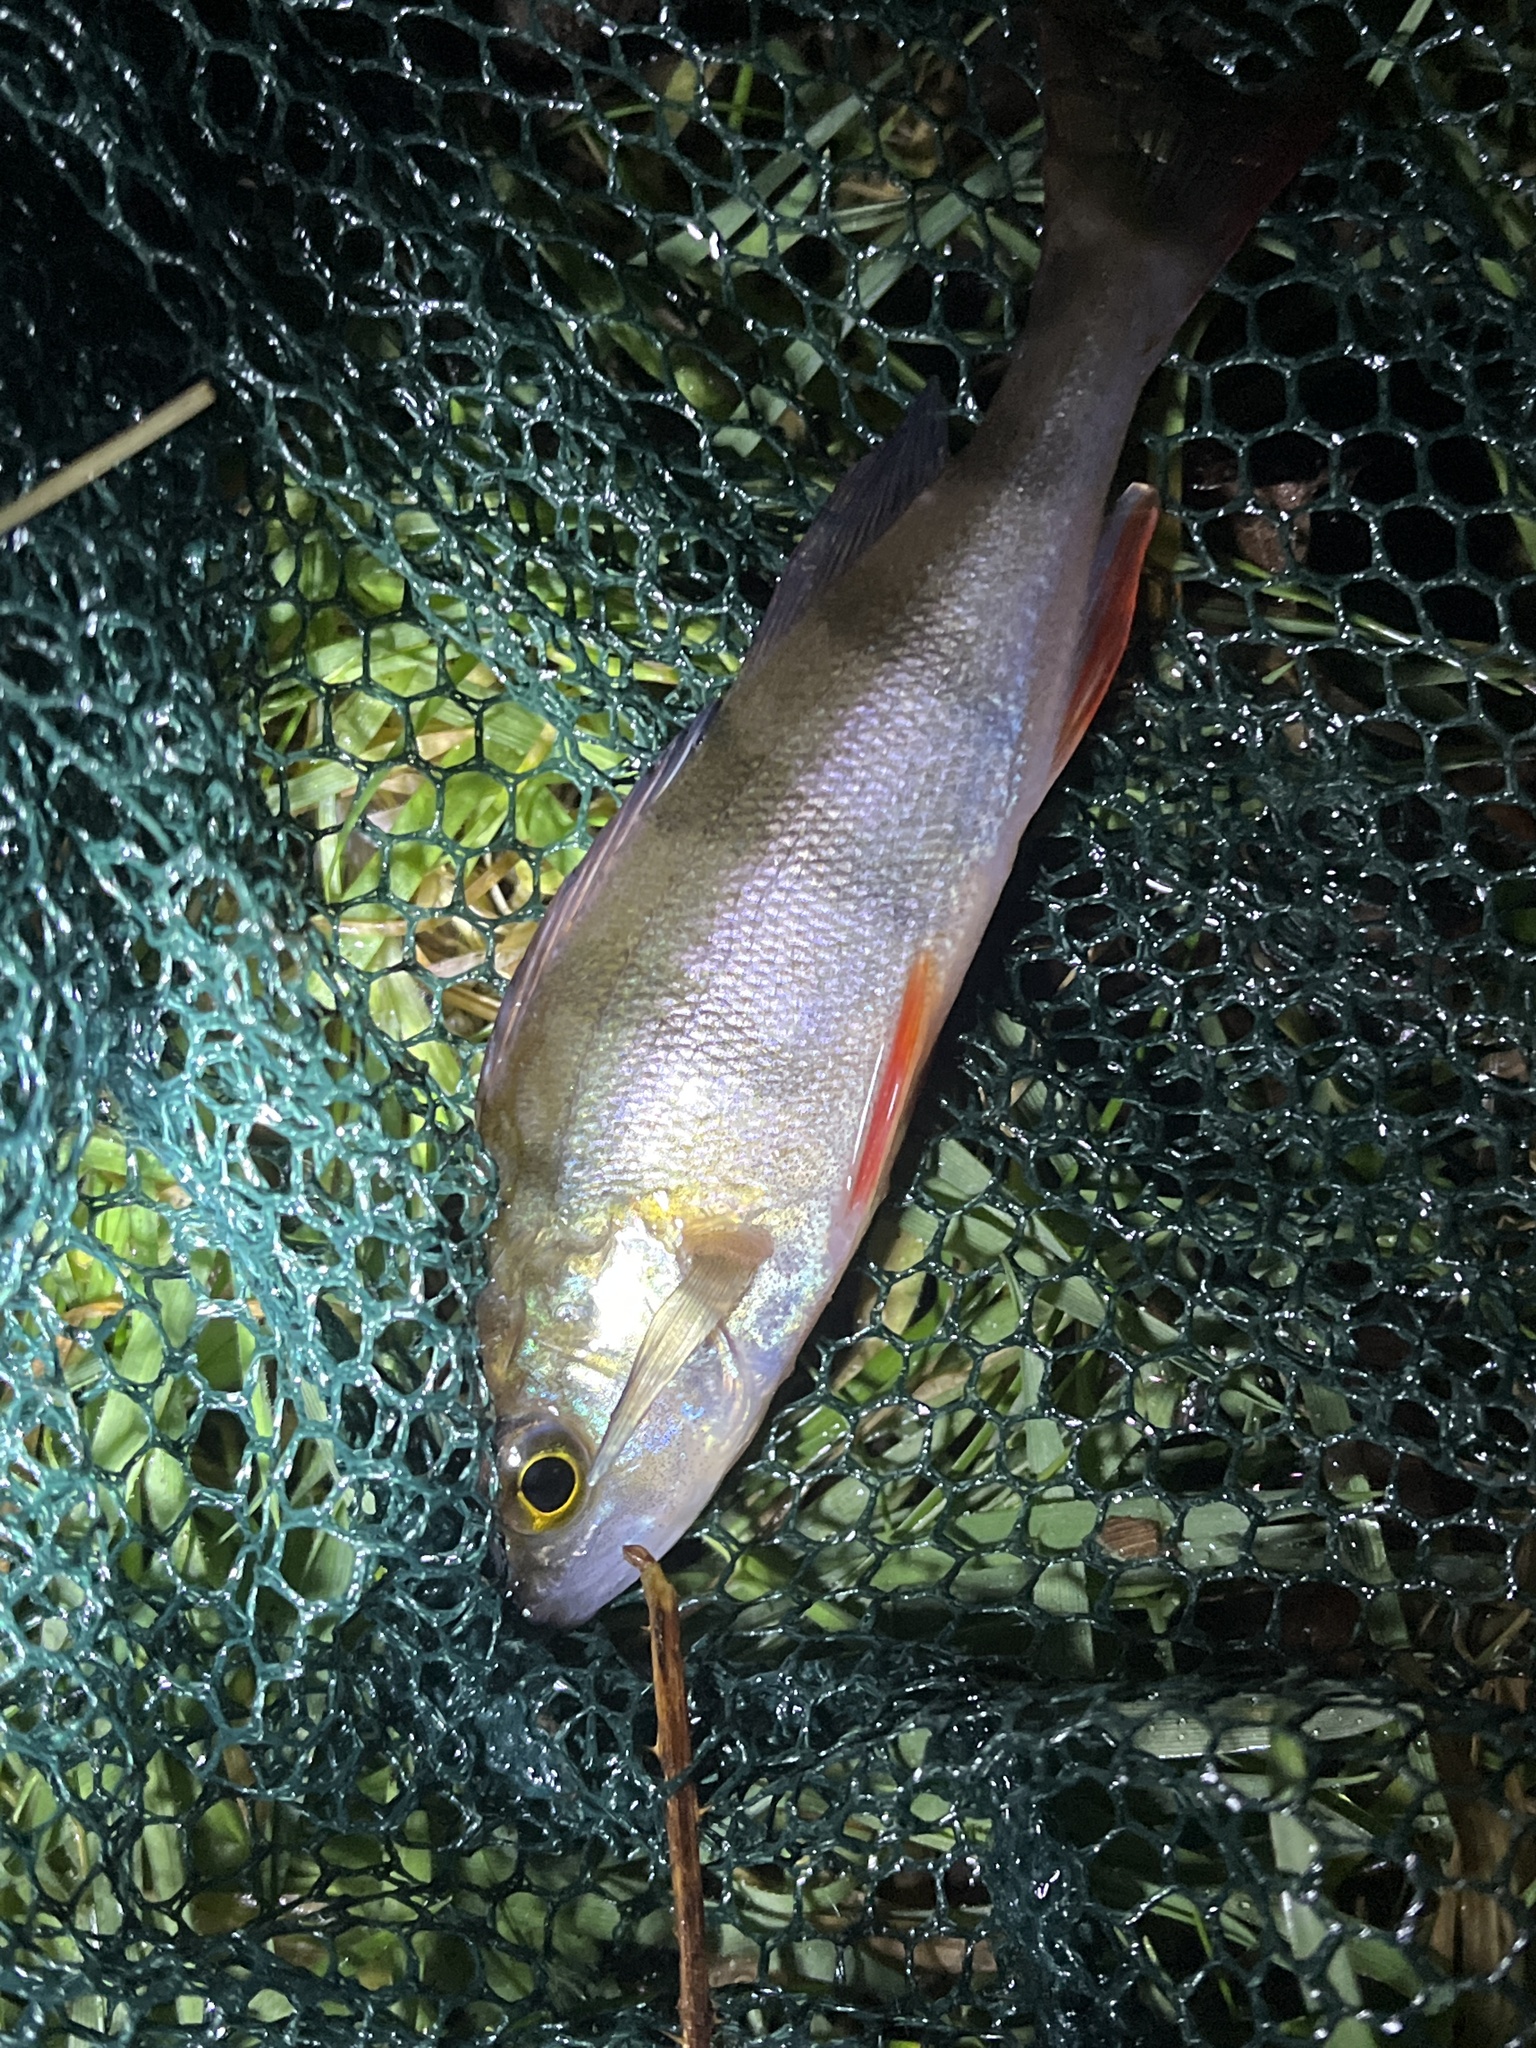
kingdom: Animalia
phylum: Chordata
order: Perciformes
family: Percidae
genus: Perca
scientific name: Perca fluviatilis
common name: Perch
